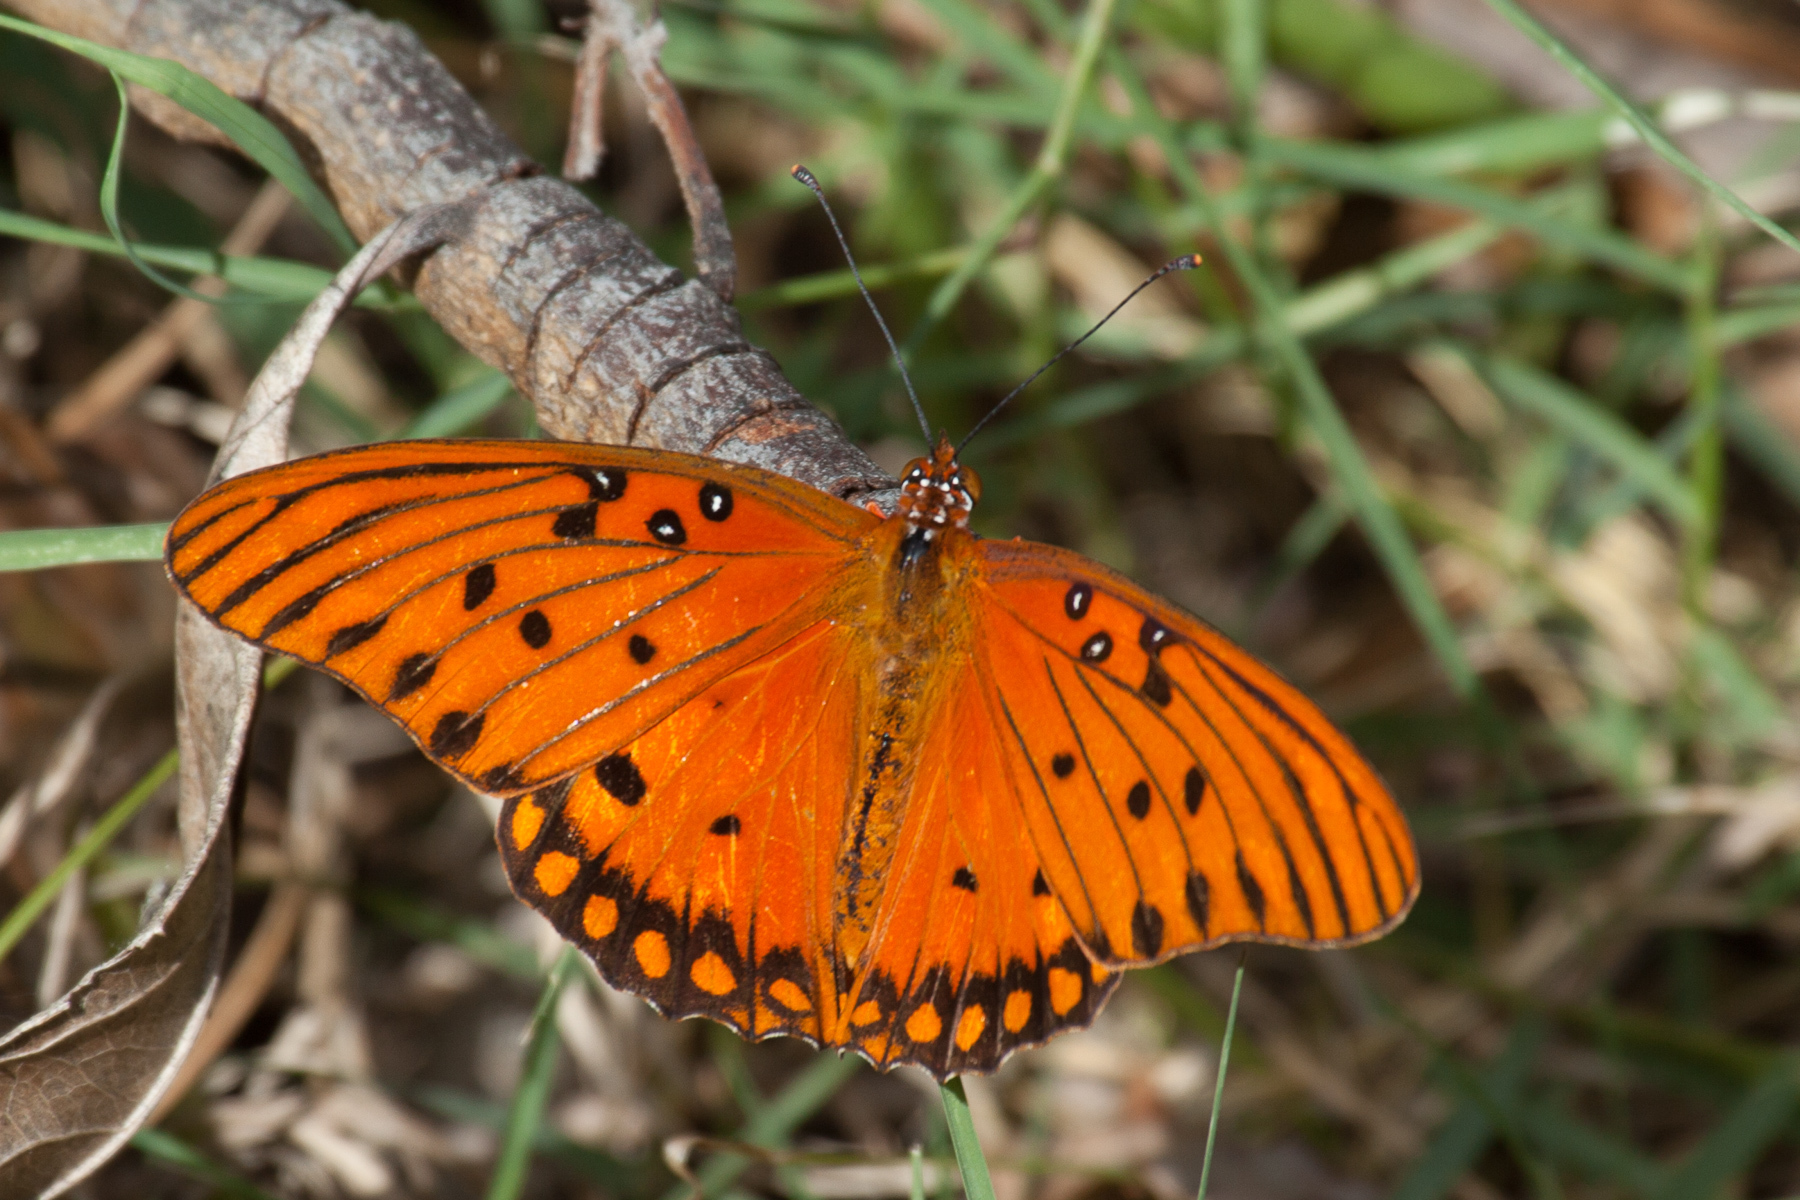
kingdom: Animalia
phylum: Arthropoda
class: Insecta
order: Lepidoptera
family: Nymphalidae
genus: Dione
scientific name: Dione vanillae
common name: Gulf fritillary
